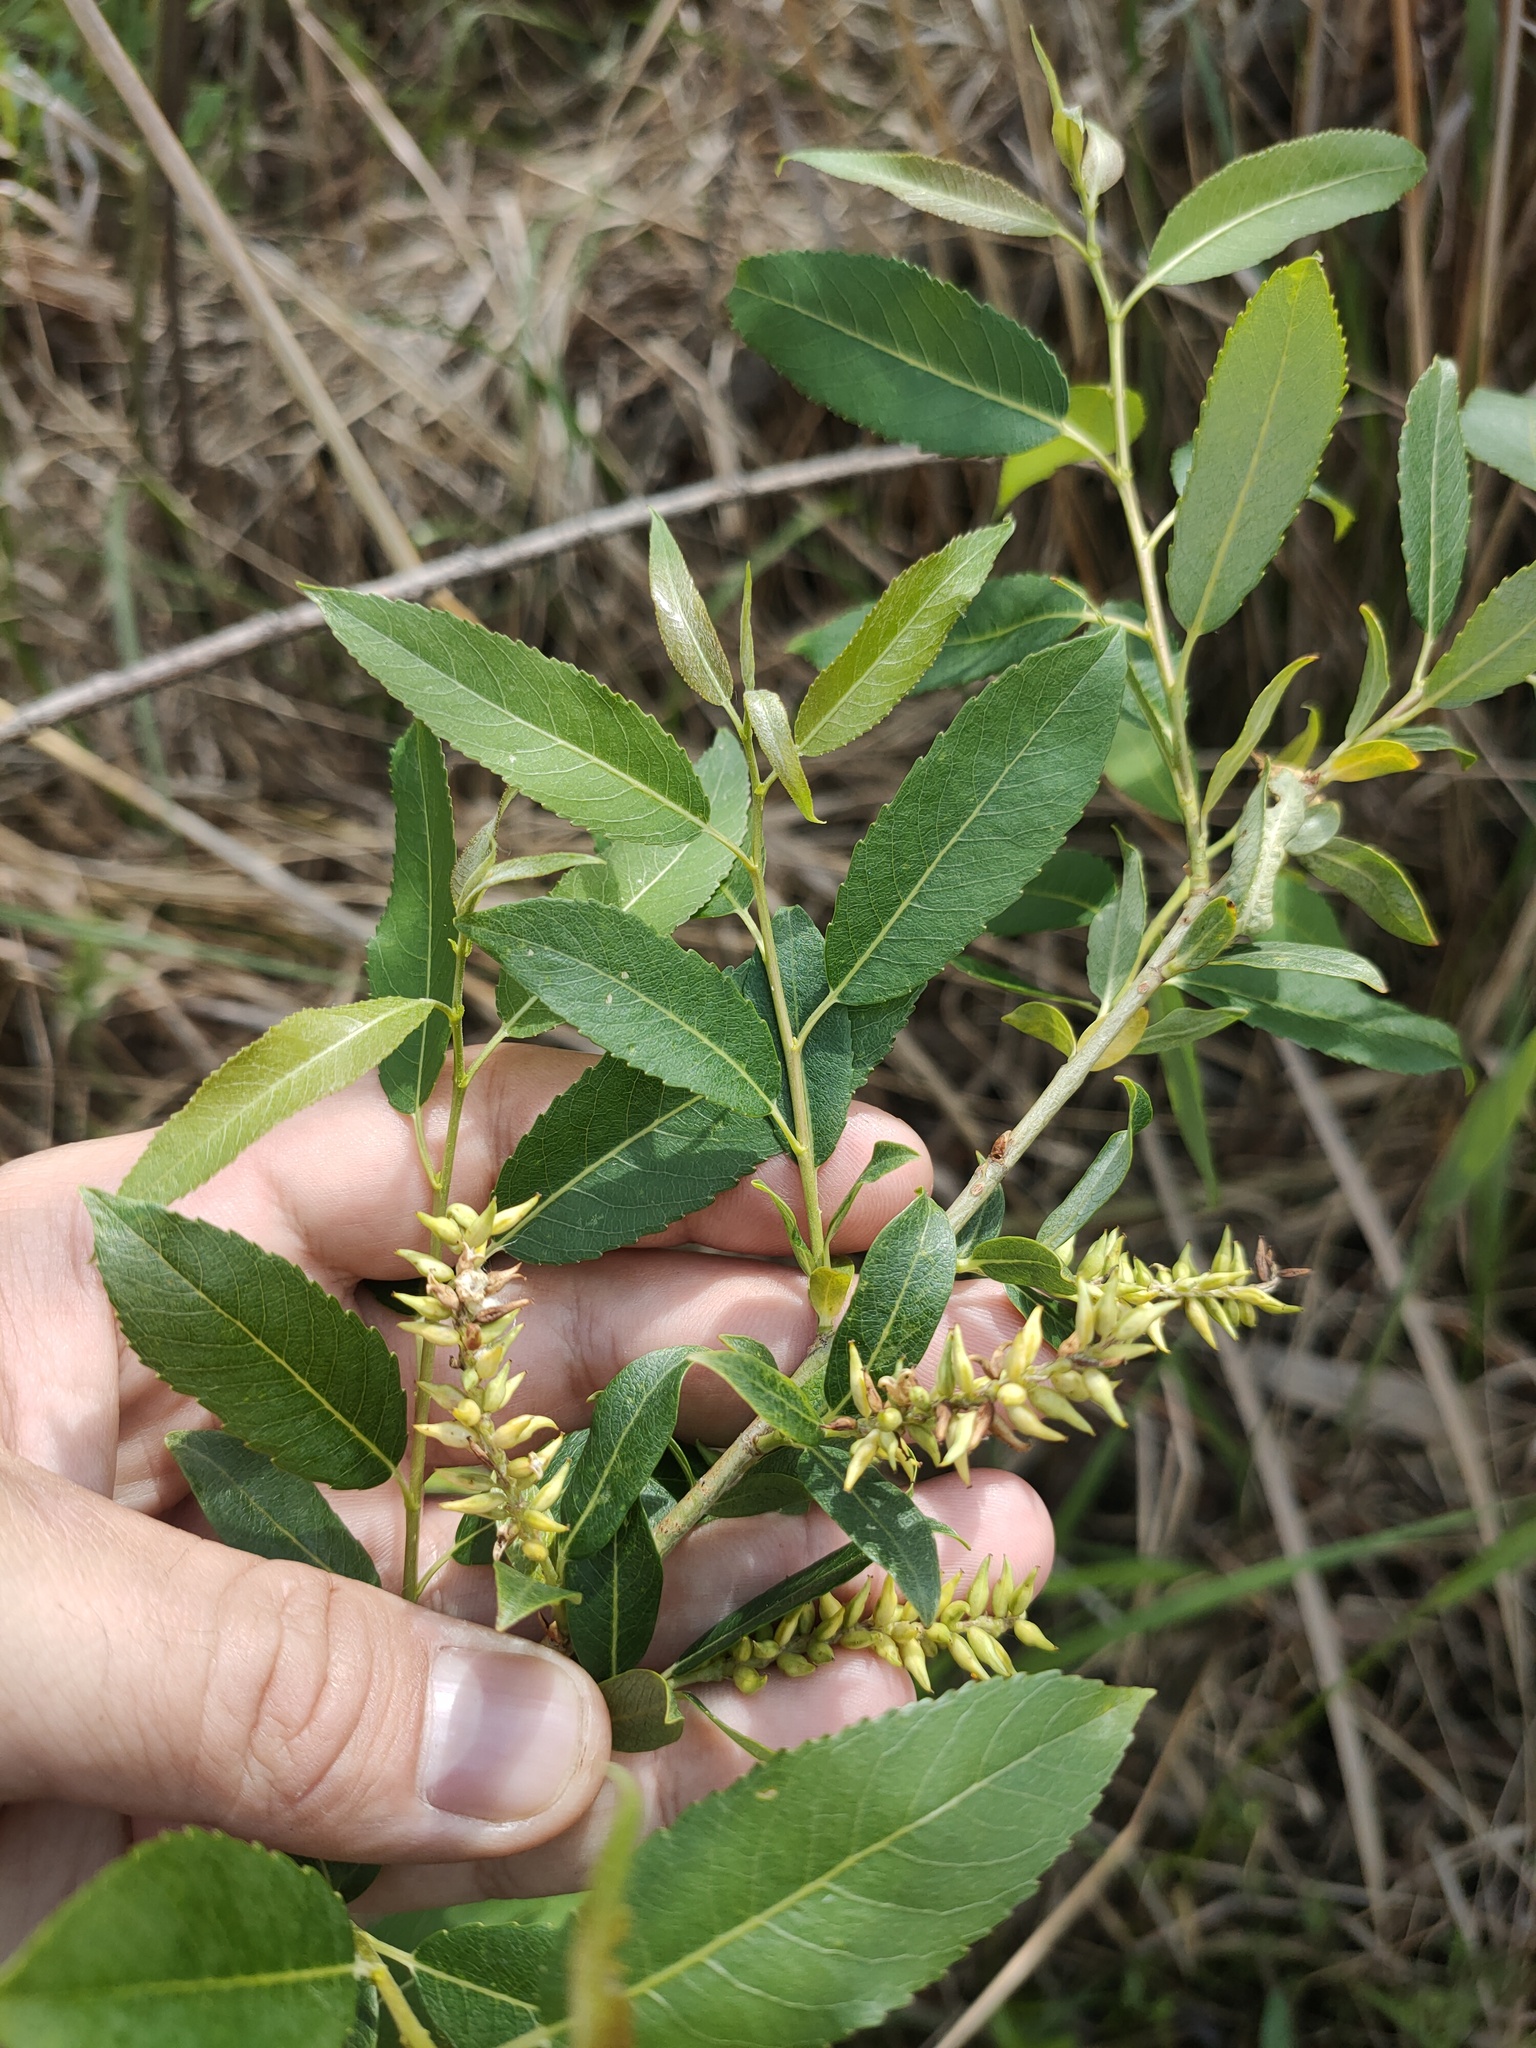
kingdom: Plantae
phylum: Tracheophyta
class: Magnoliopsida
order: Malpighiales
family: Salicaceae
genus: Salix
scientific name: Salix triandra
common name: Almond willow
